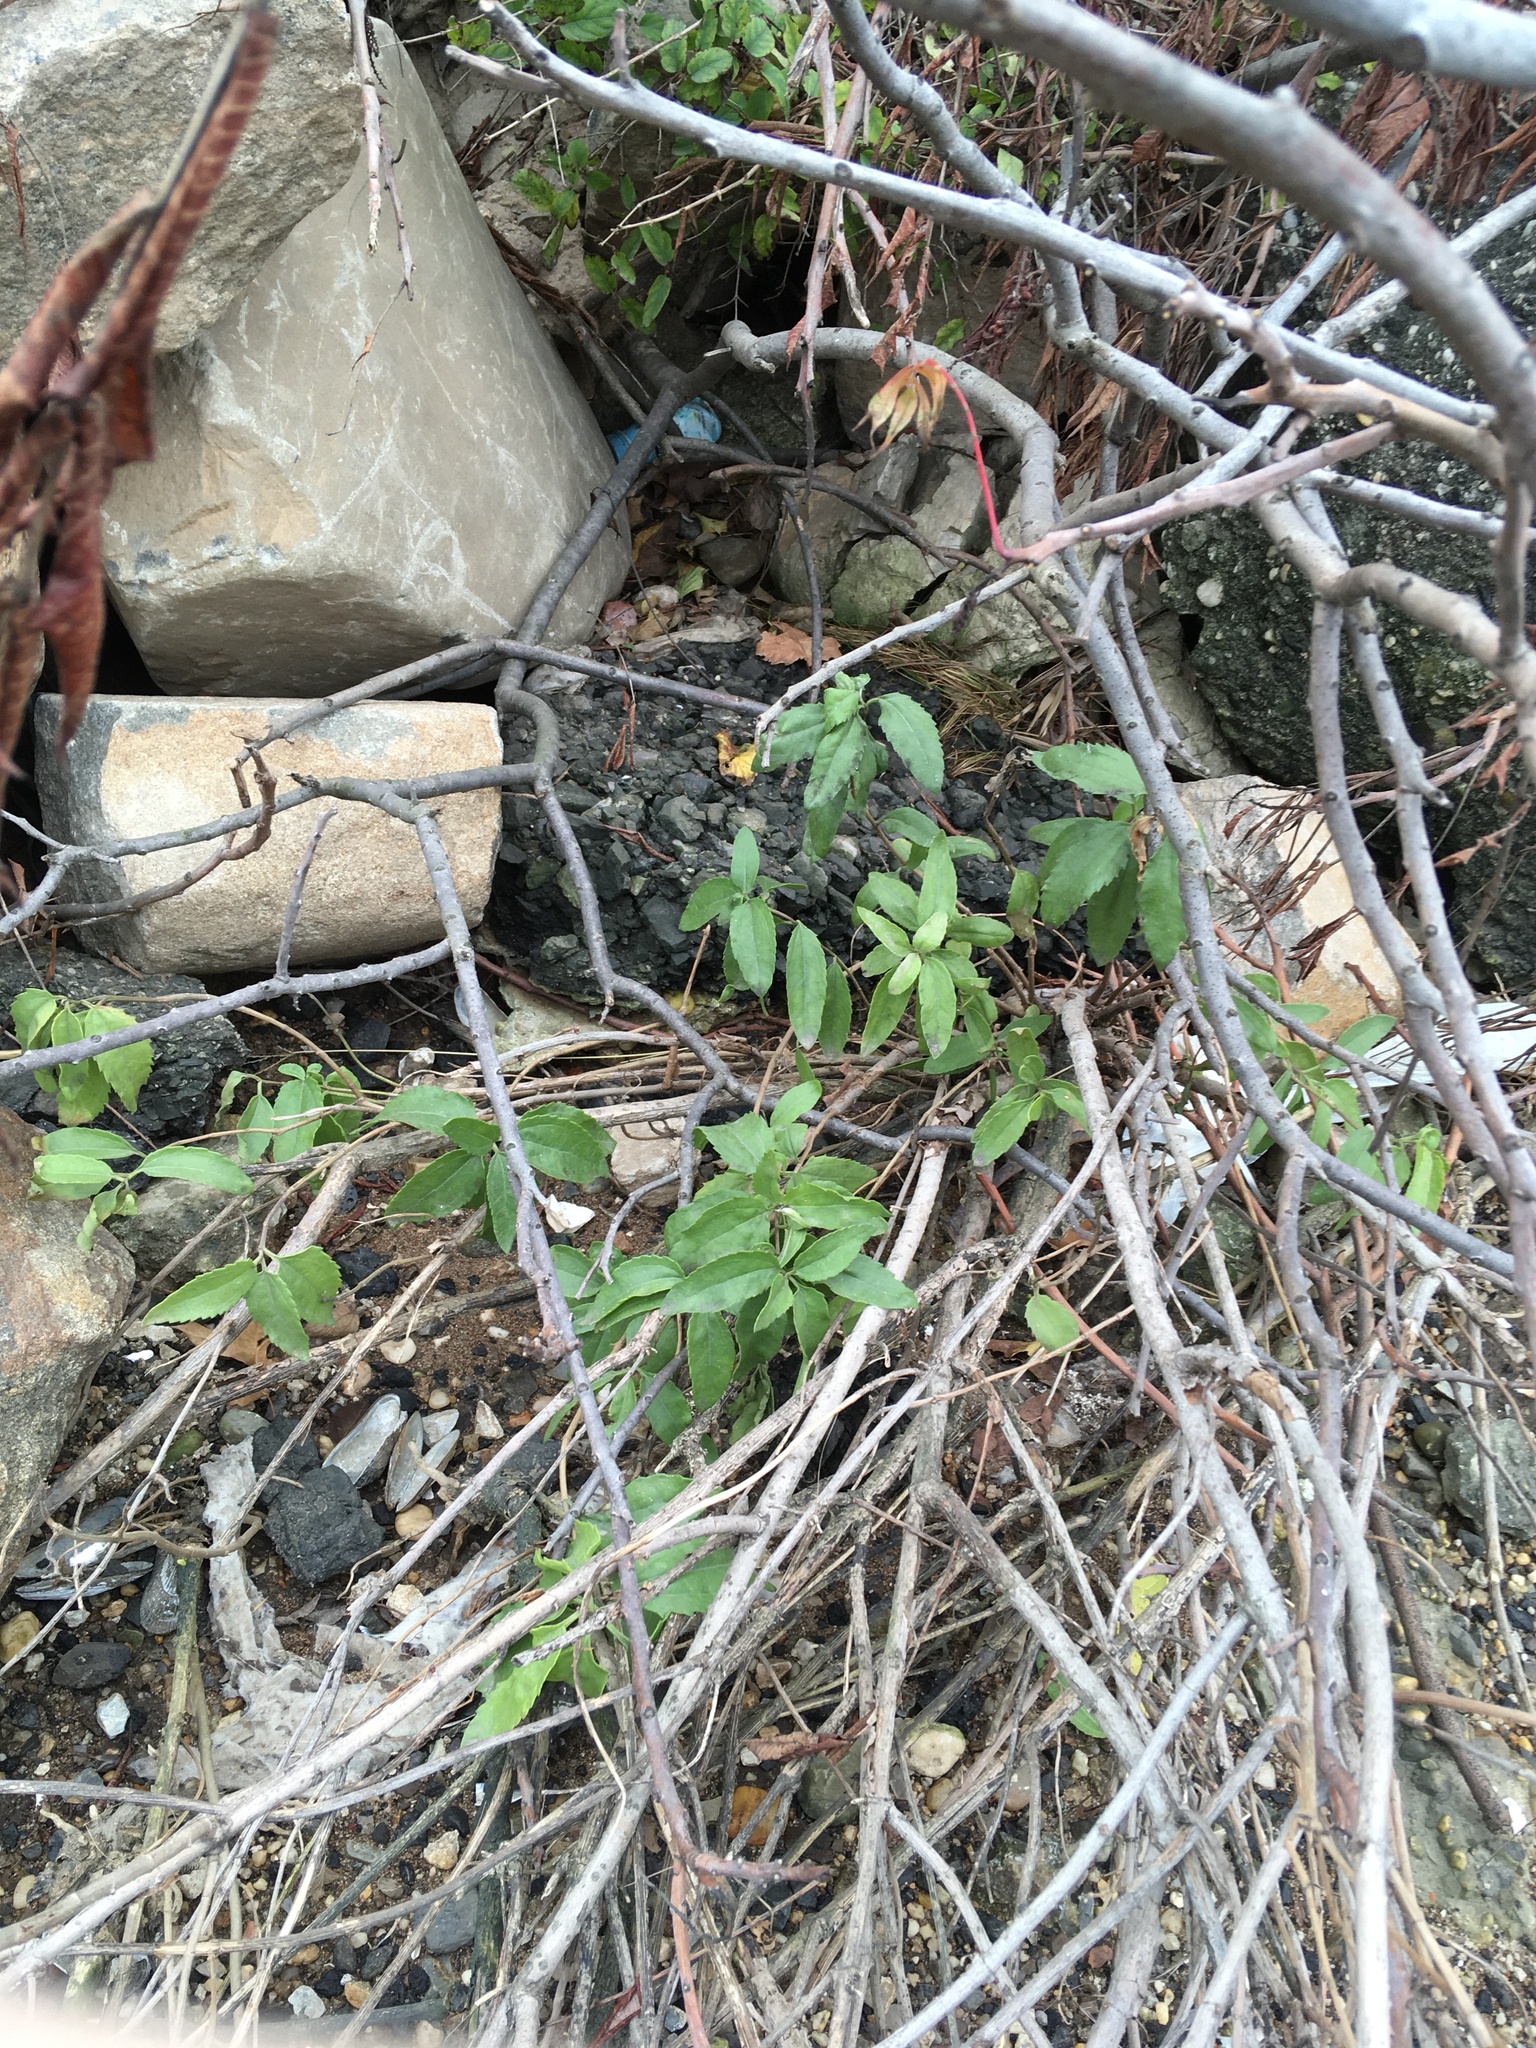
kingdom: Plantae
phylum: Tracheophyta
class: Magnoliopsida
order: Asterales
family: Asteraceae
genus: Iva
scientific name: Iva frutescens
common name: Big-leaved marsh-elder
